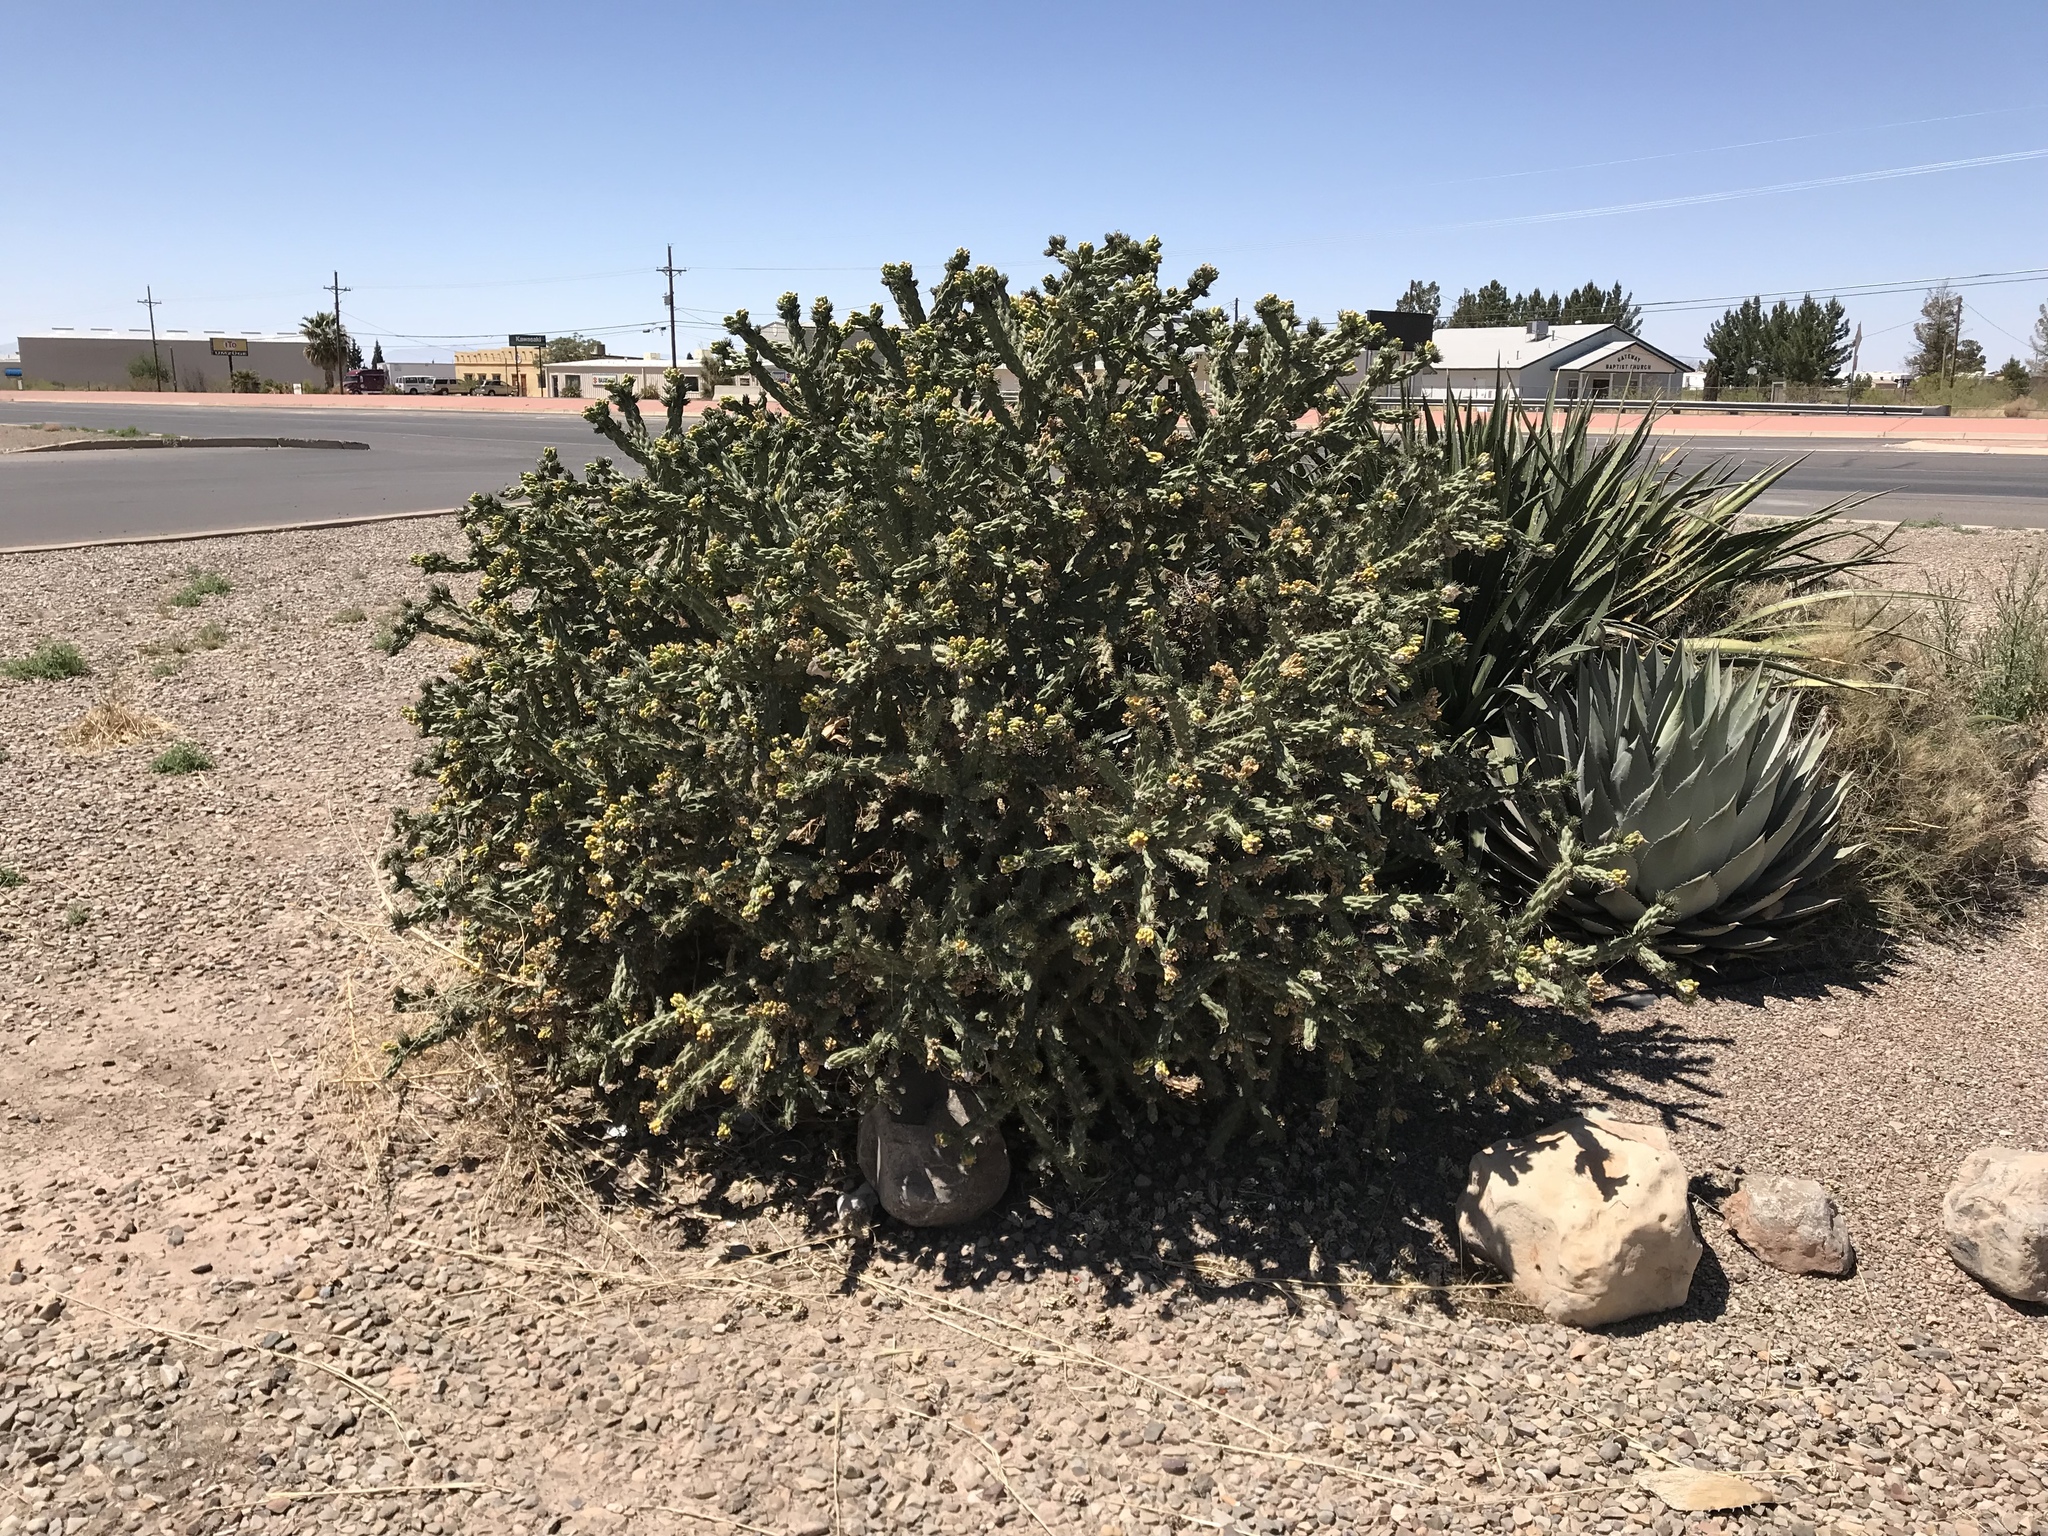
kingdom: Plantae
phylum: Tracheophyta
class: Magnoliopsida
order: Caryophyllales
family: Cactaceae
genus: Cylindropuntia
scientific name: Cylindropuntia imbricata
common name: Candelabrum cactus
